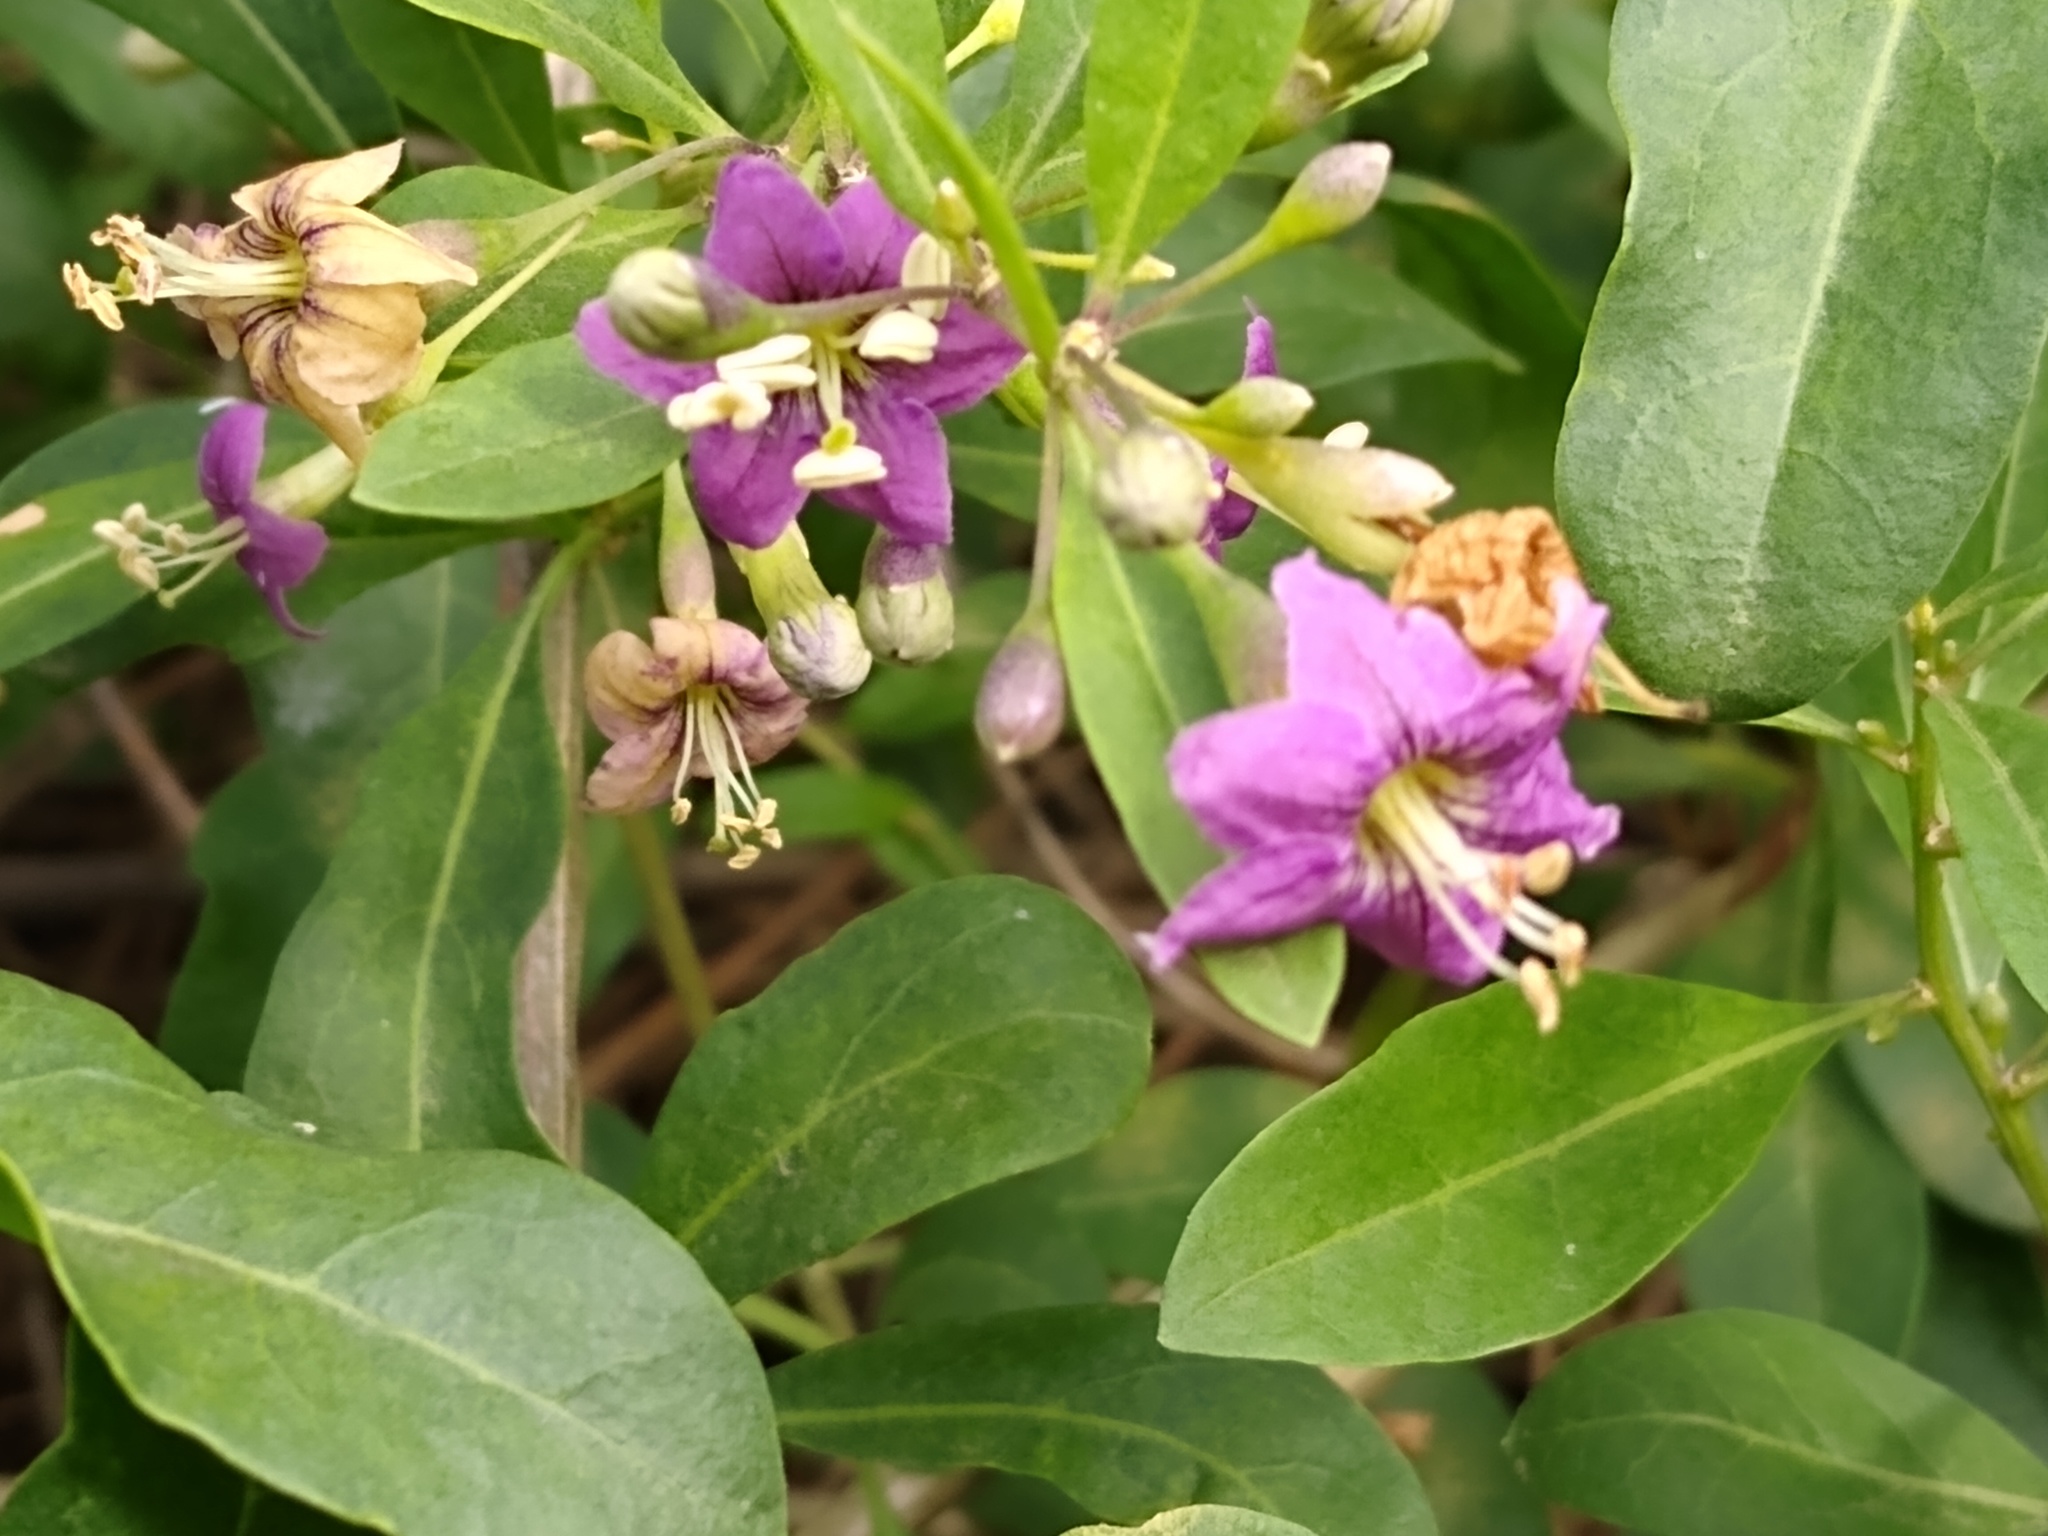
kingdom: Plantae
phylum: Tracheophyta
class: Magnoliopsida
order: Solanales
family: Solanaceae
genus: Lycium
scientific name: Lycium barbarum
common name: Duke of argyll's teaplant
